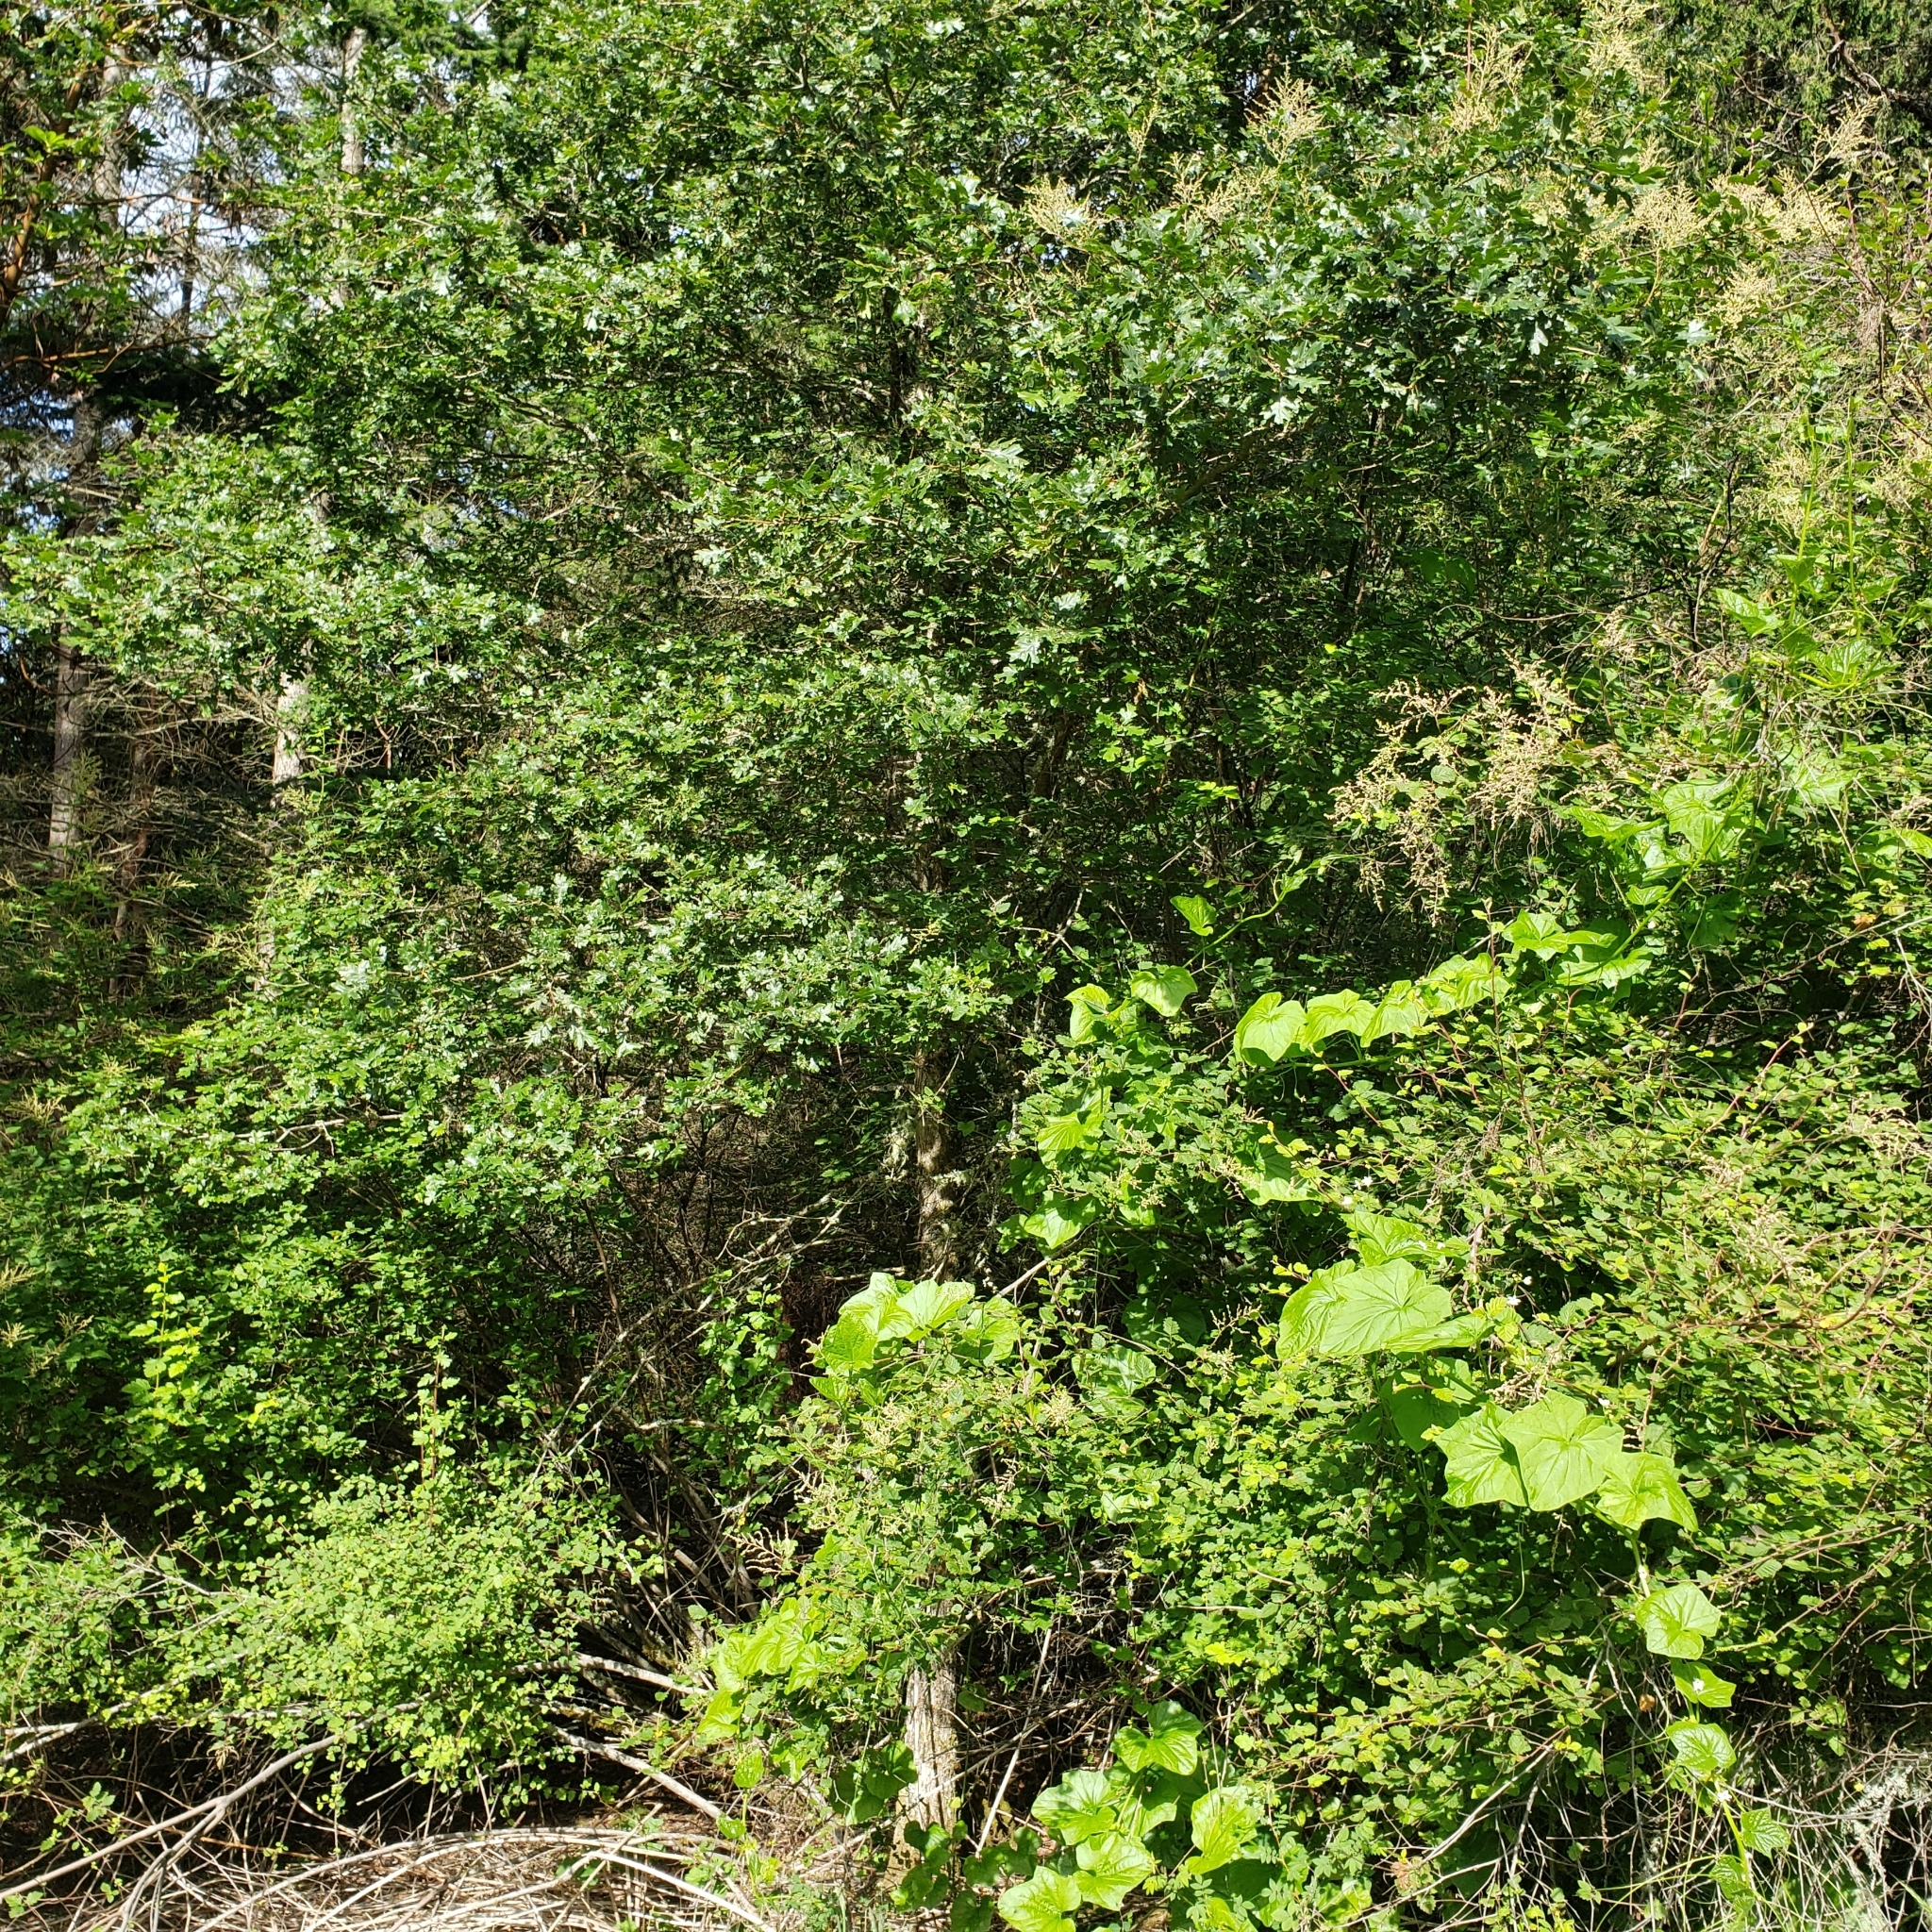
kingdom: Plantae
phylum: Tracheophyta
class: Magnoliopsida
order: Fagales
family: Fagaceae
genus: Quercus
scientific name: Quercus garryana
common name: Garry oak
